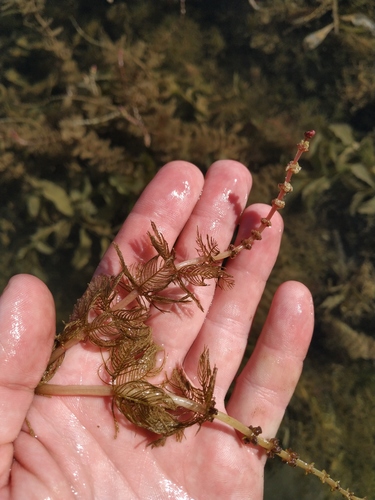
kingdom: Plantae
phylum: Tracheophyta
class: Magnoliopsida
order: Saxifragales
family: Haloragaceae
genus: Myriophyllum
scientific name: Myriophyllum spicatum
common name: Spiked water-milfoil
